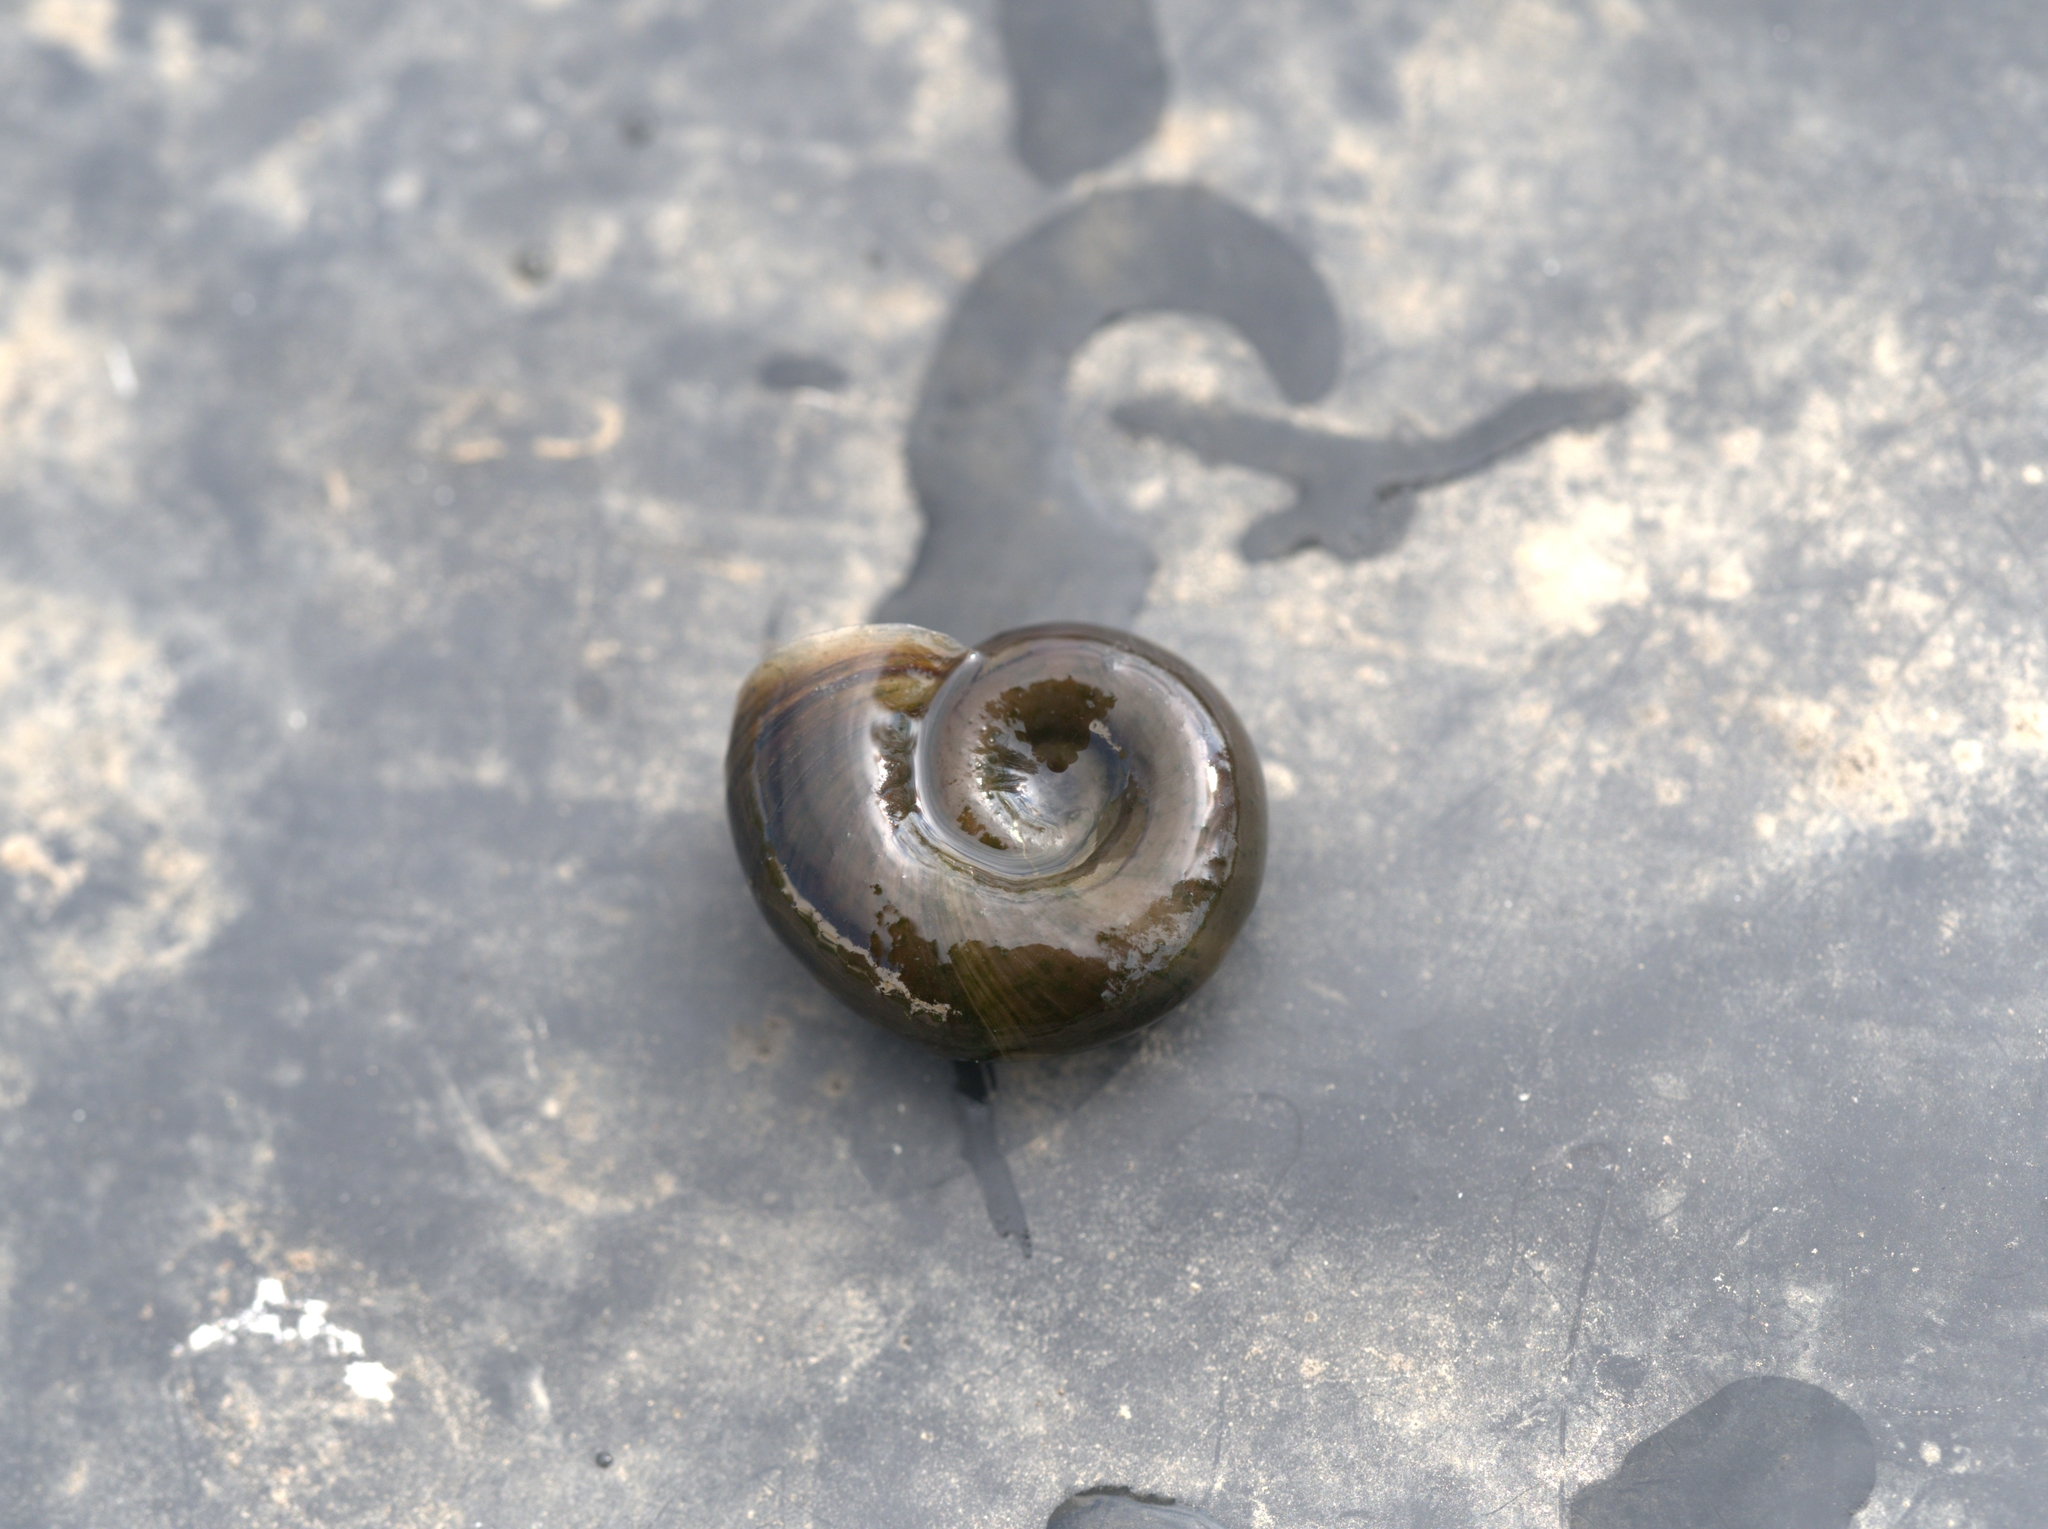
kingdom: Animalia
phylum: Mollusca
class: Gastropoda
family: Planorbidae
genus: Planorbarius
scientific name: Planorbarius corneus
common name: Great ramshorn
